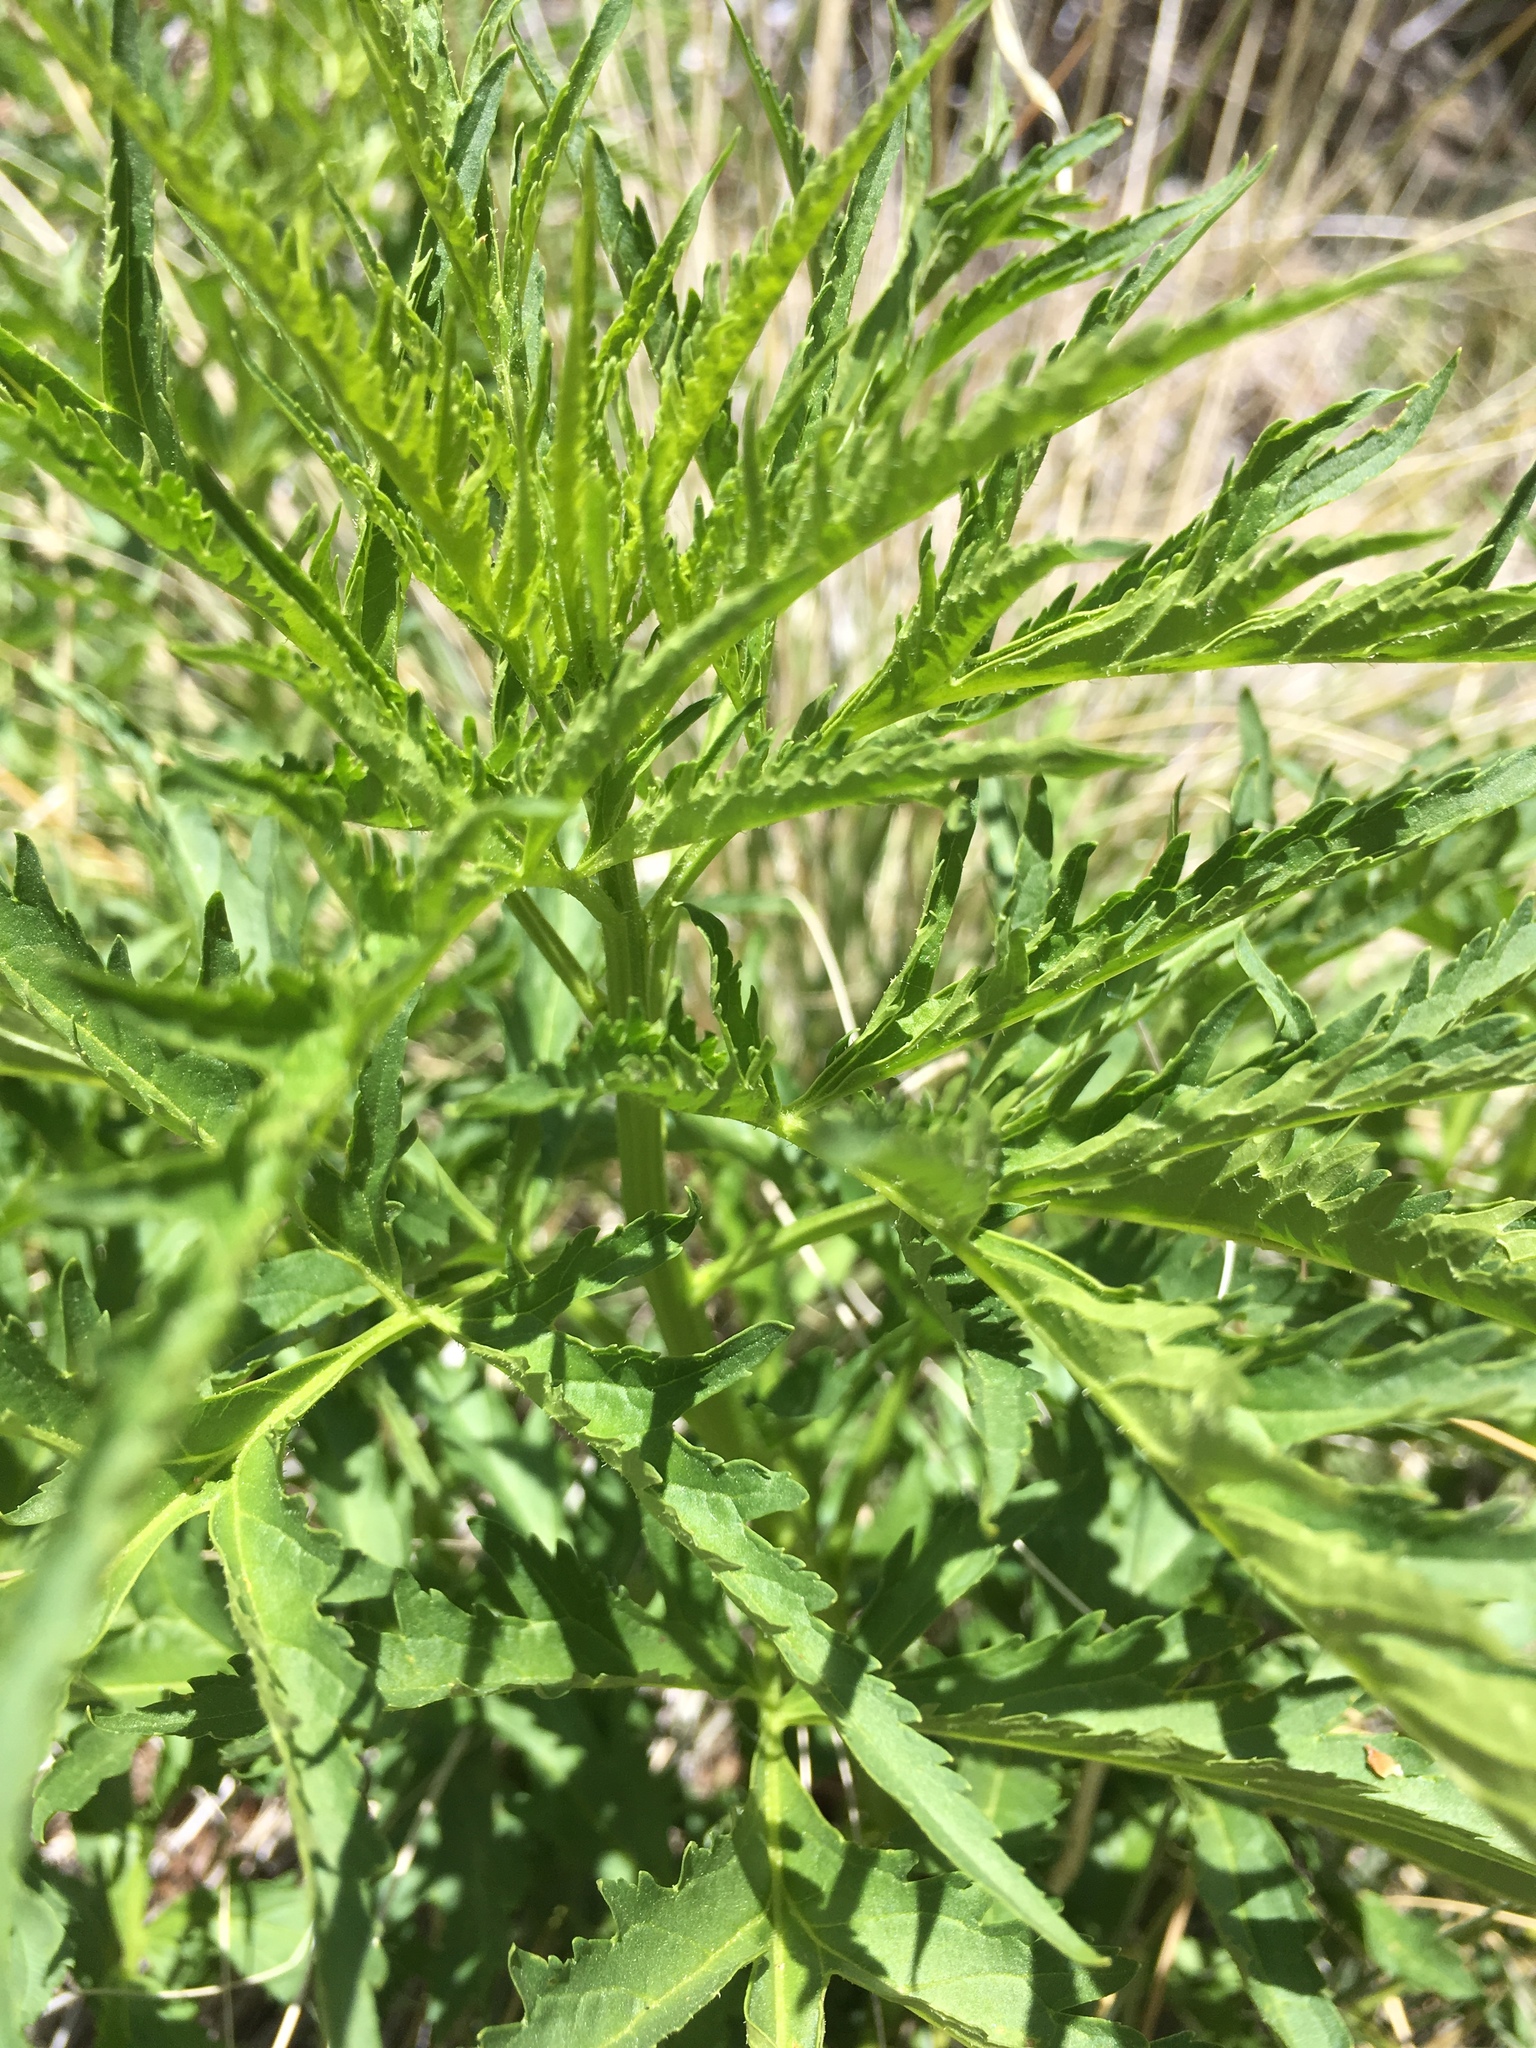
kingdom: Plantae
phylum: Tracheophyta
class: Magnoliopsida
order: Asterales
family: Asteraceae
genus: Ambrosia
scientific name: Ambrosia psilostachya
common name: Perennial ragweed
